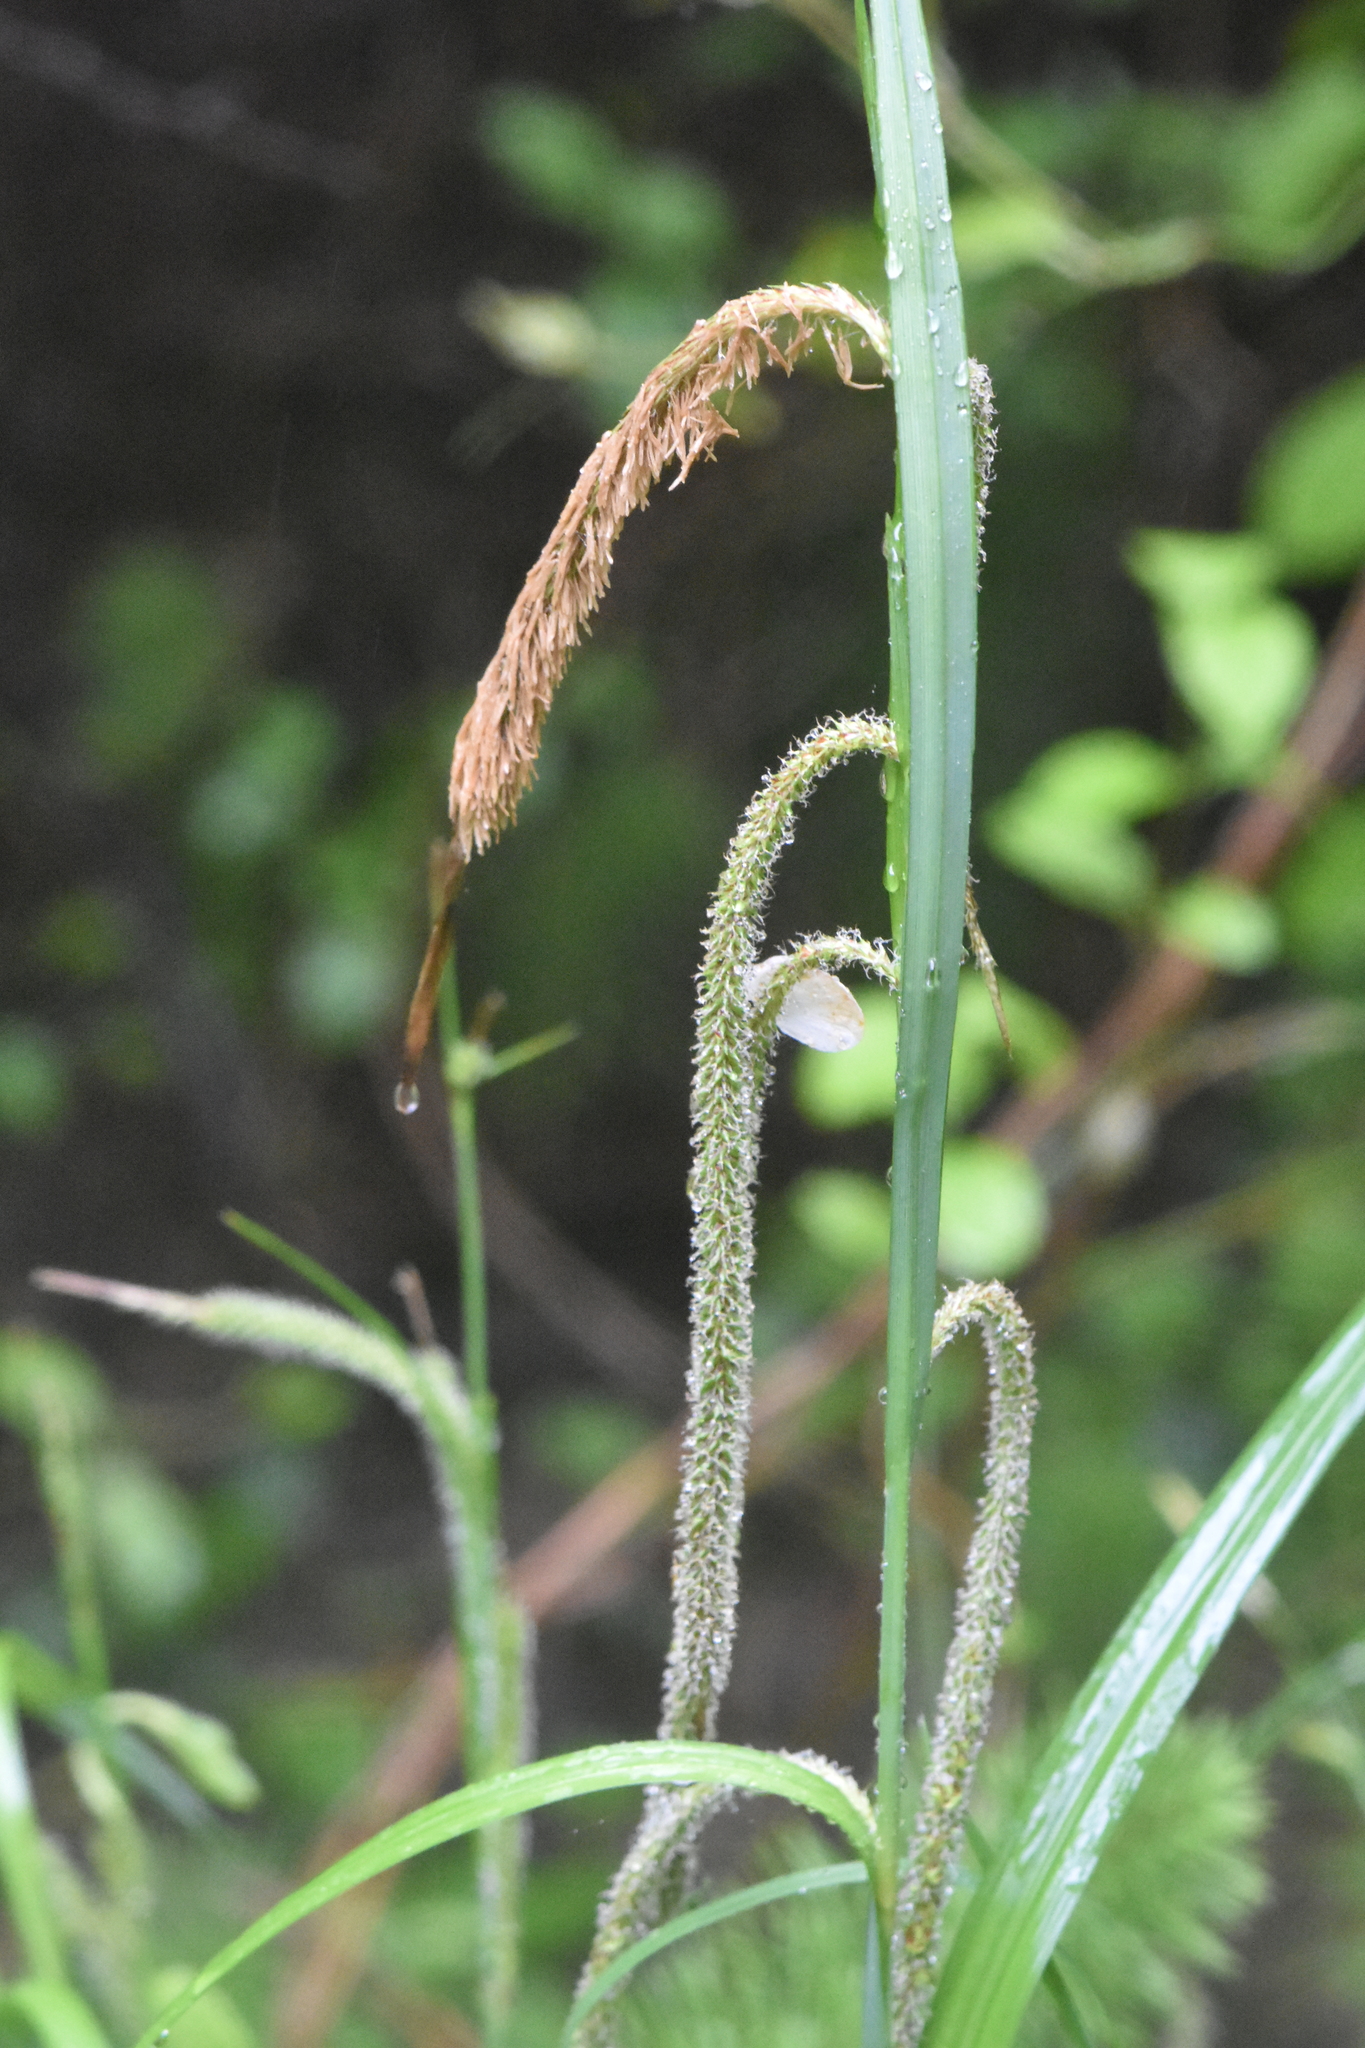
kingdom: Plantae
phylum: Tracheophyta
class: Liliopsida
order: Poales
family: Cyperaceae
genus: Carex
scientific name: Carex pendula
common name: Pendulous sedge
